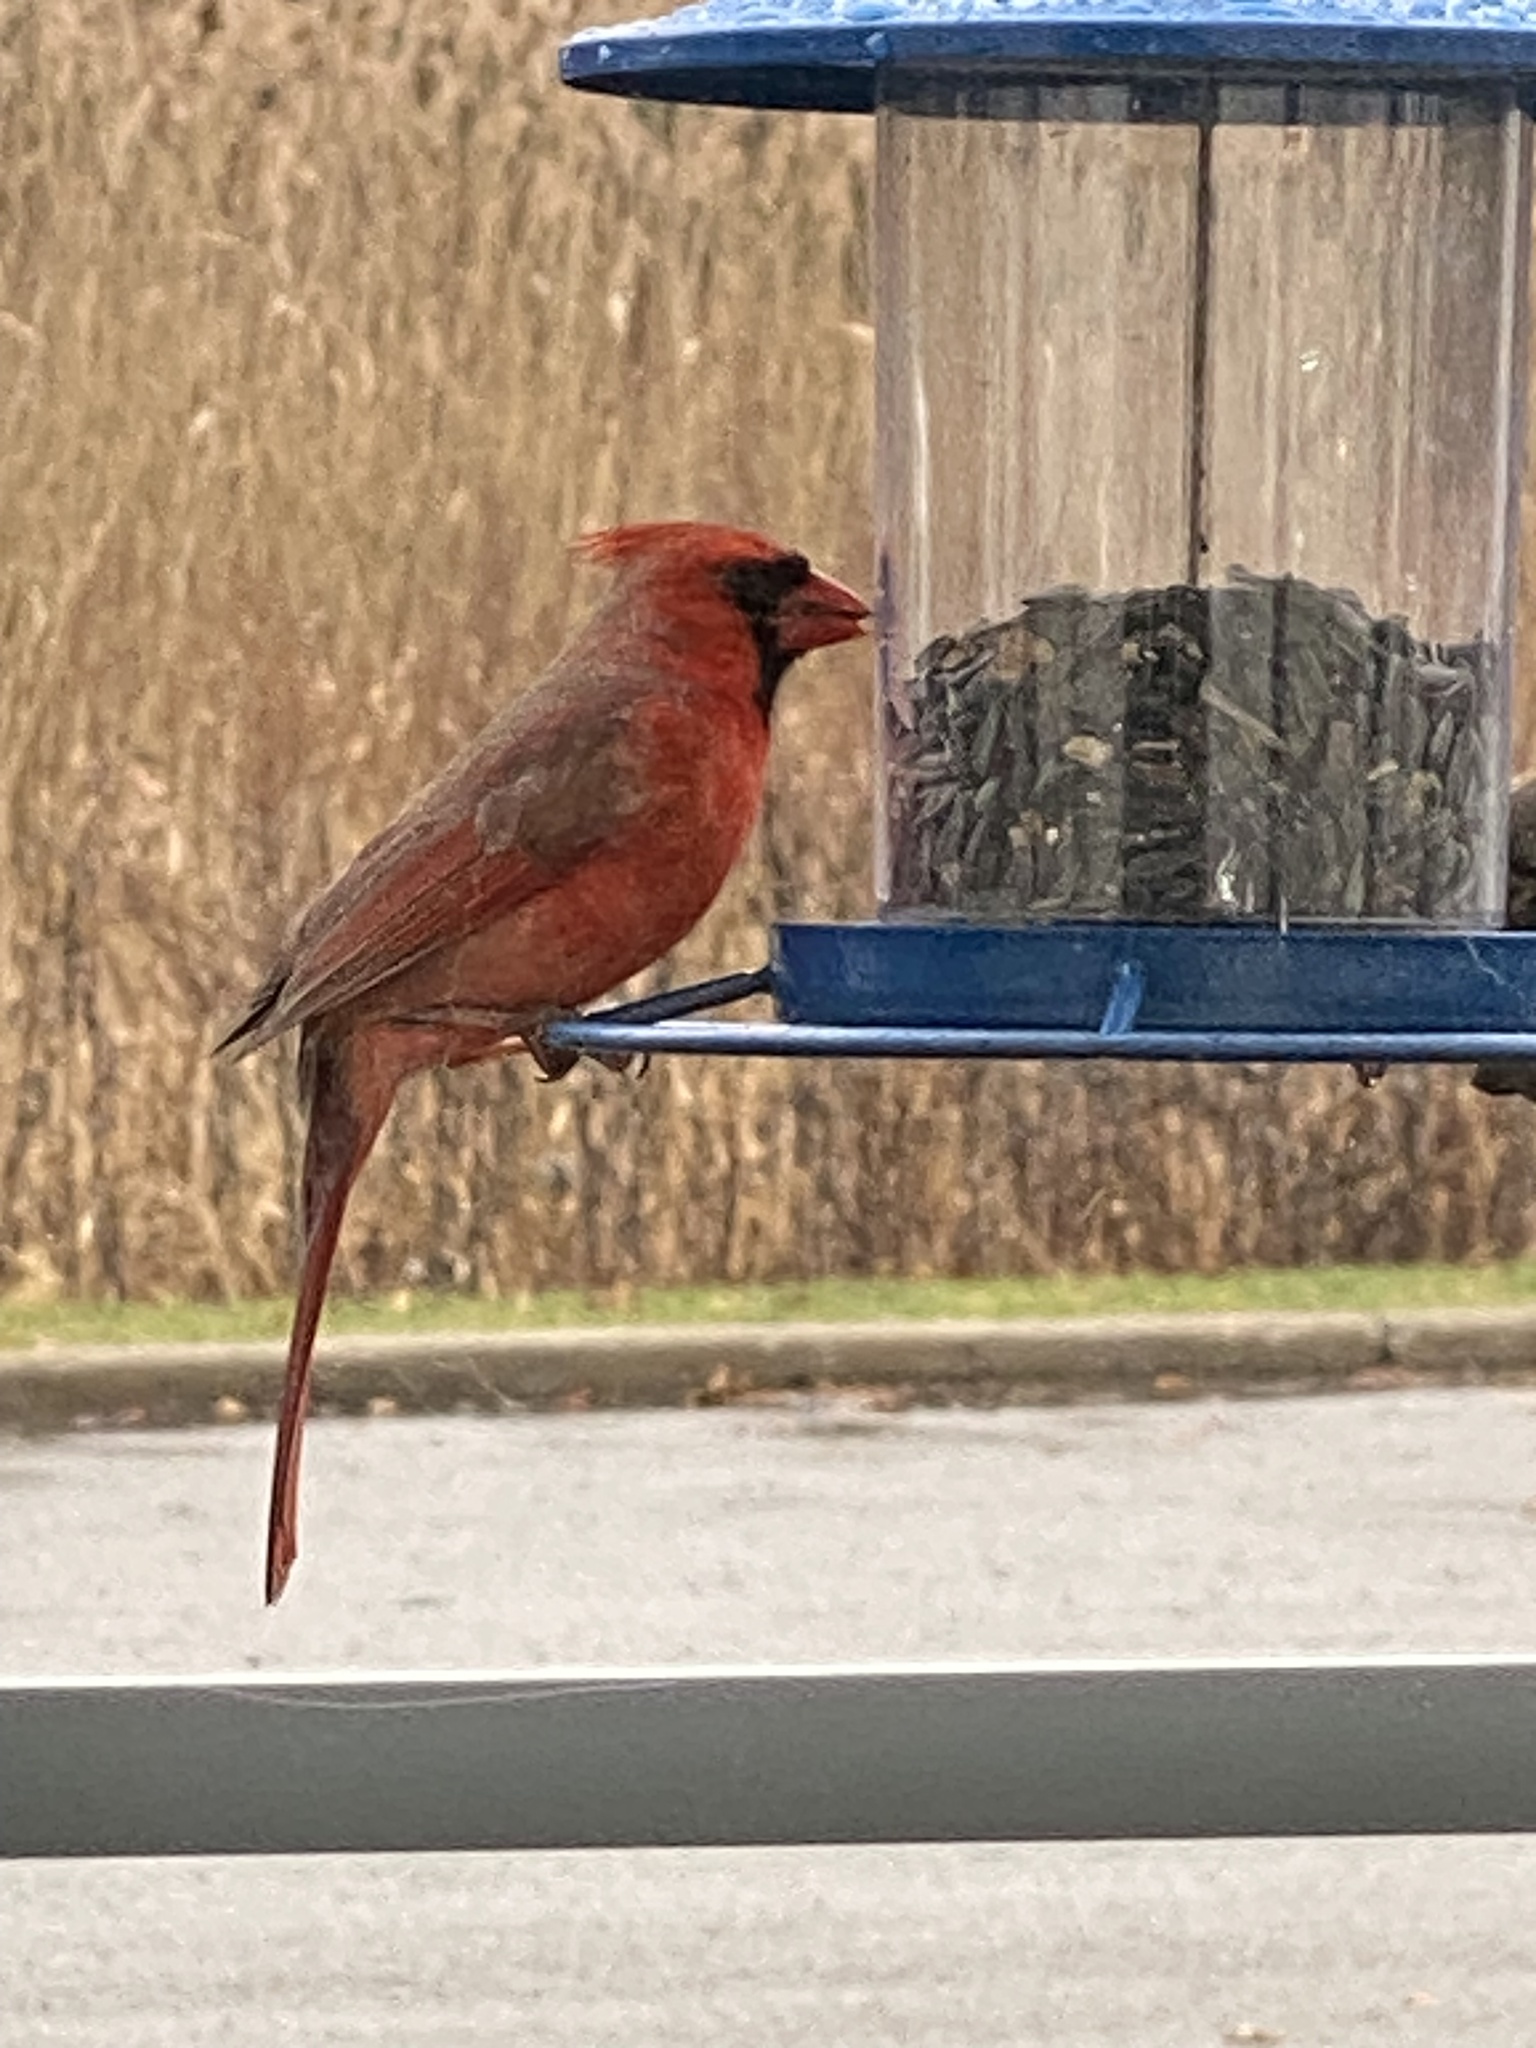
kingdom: Animalia
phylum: Chordata
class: Aves
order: Passeriformes
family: Cardinalidae
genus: Cardinalis
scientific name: Cardinalis cardinalis
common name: Northern cardinal
